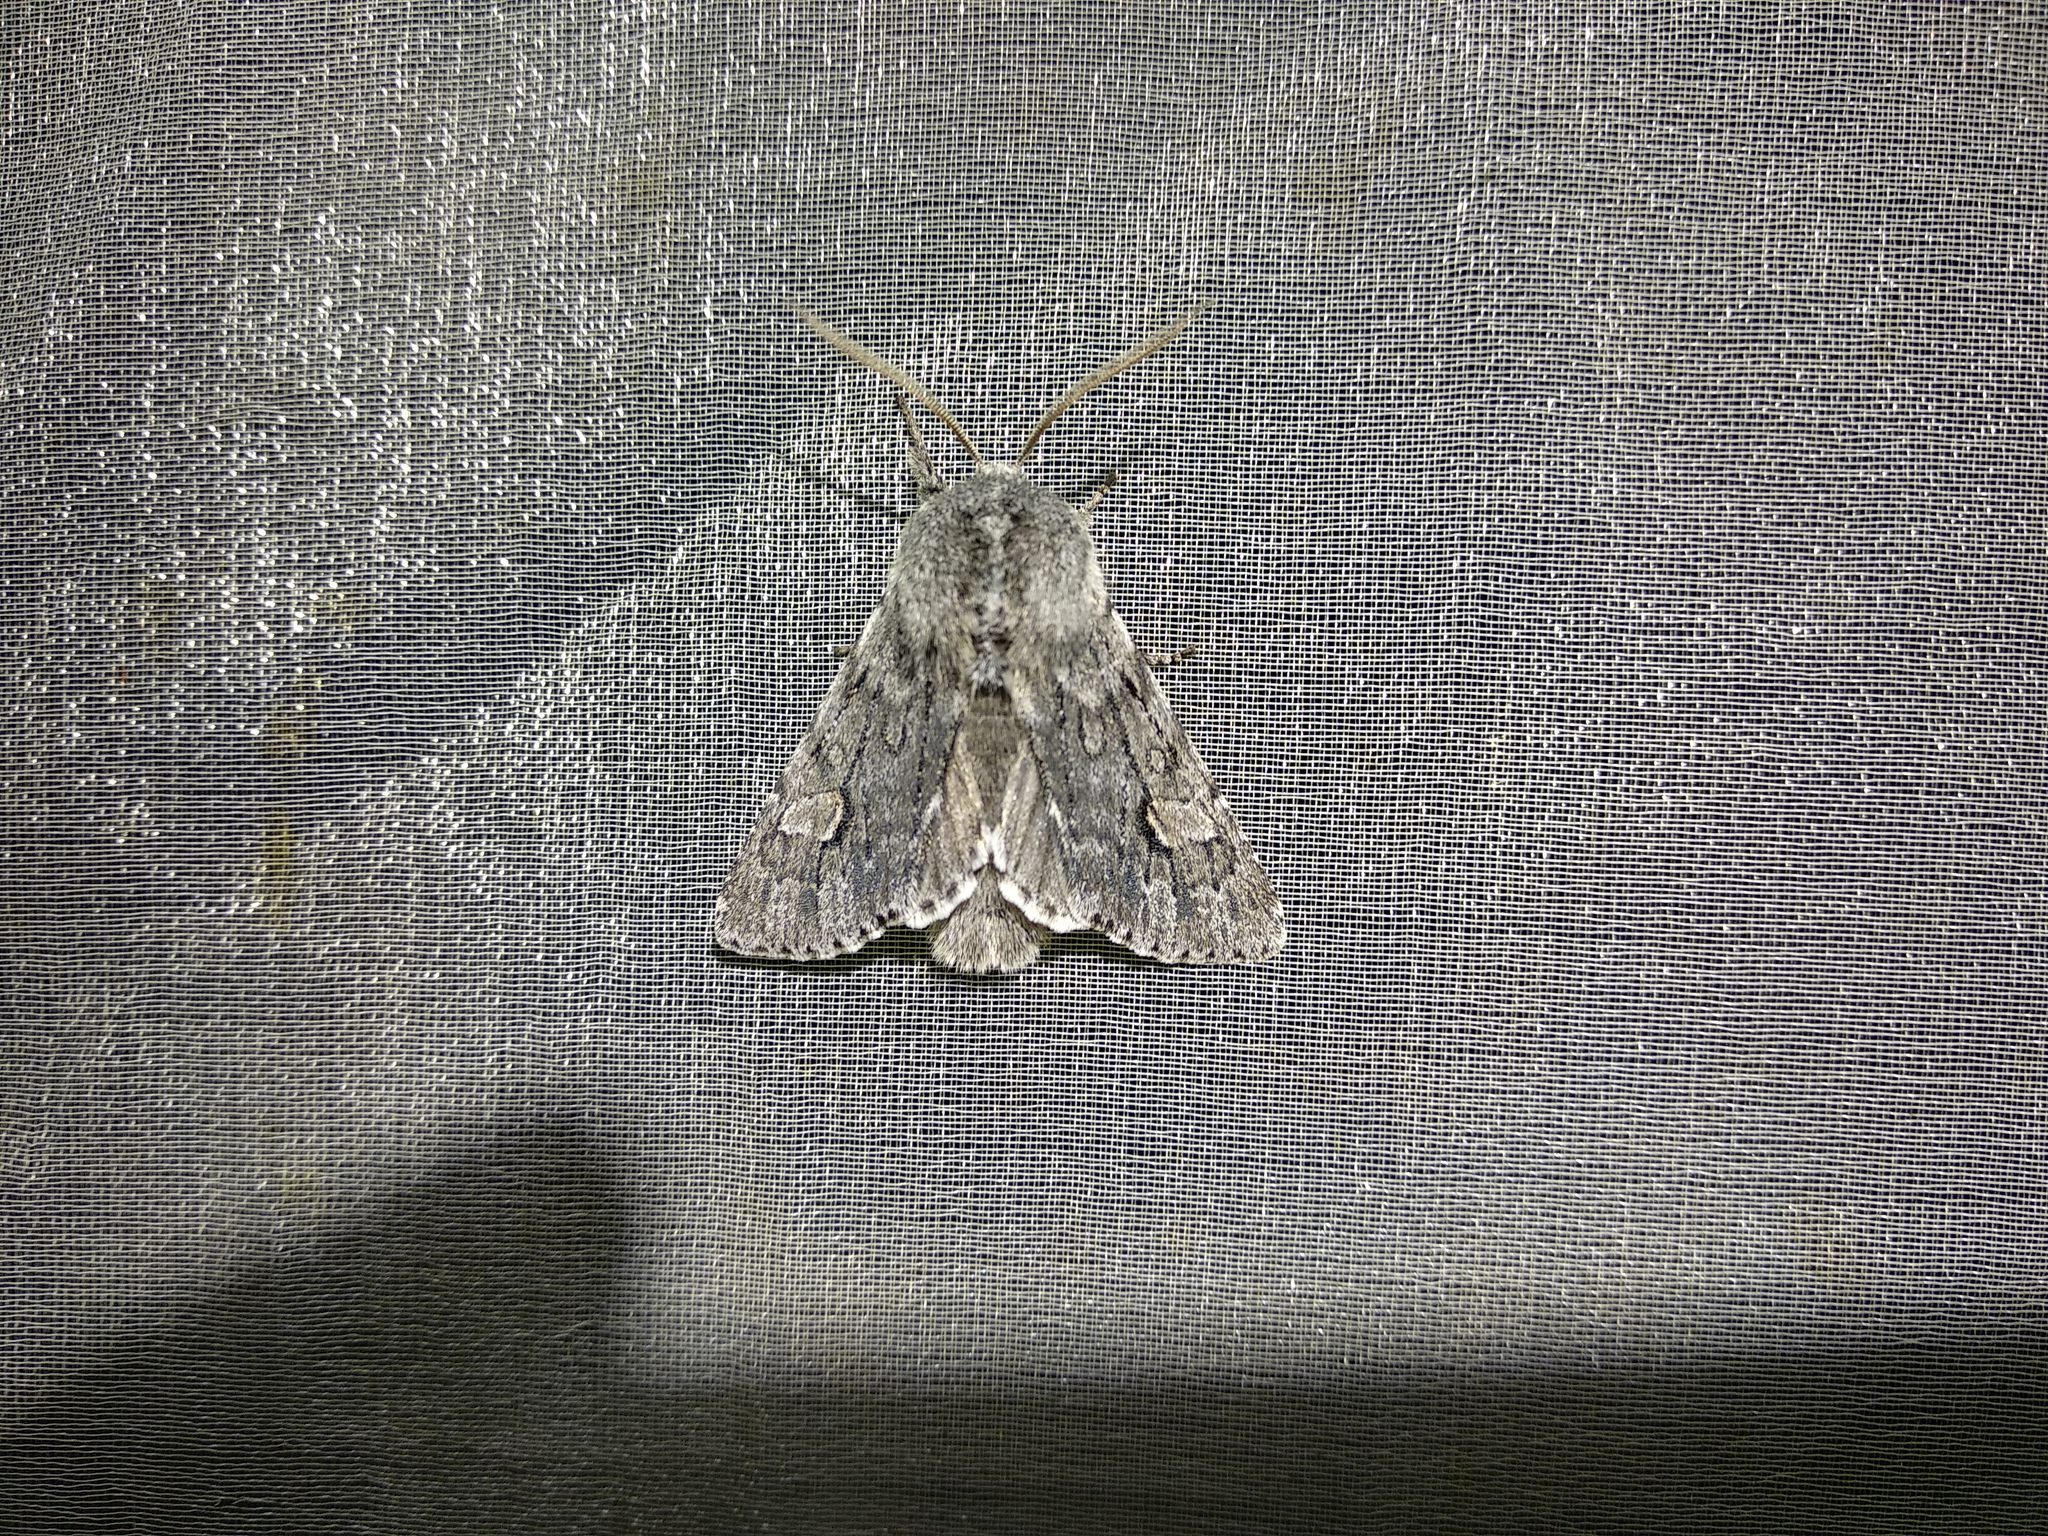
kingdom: Animalia
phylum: Arthropoda
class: Insecta
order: Lepidoptera
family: Noctuidae
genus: Brachionycha
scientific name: Brachionycha nubeculosa
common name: Rannoch sprawler
